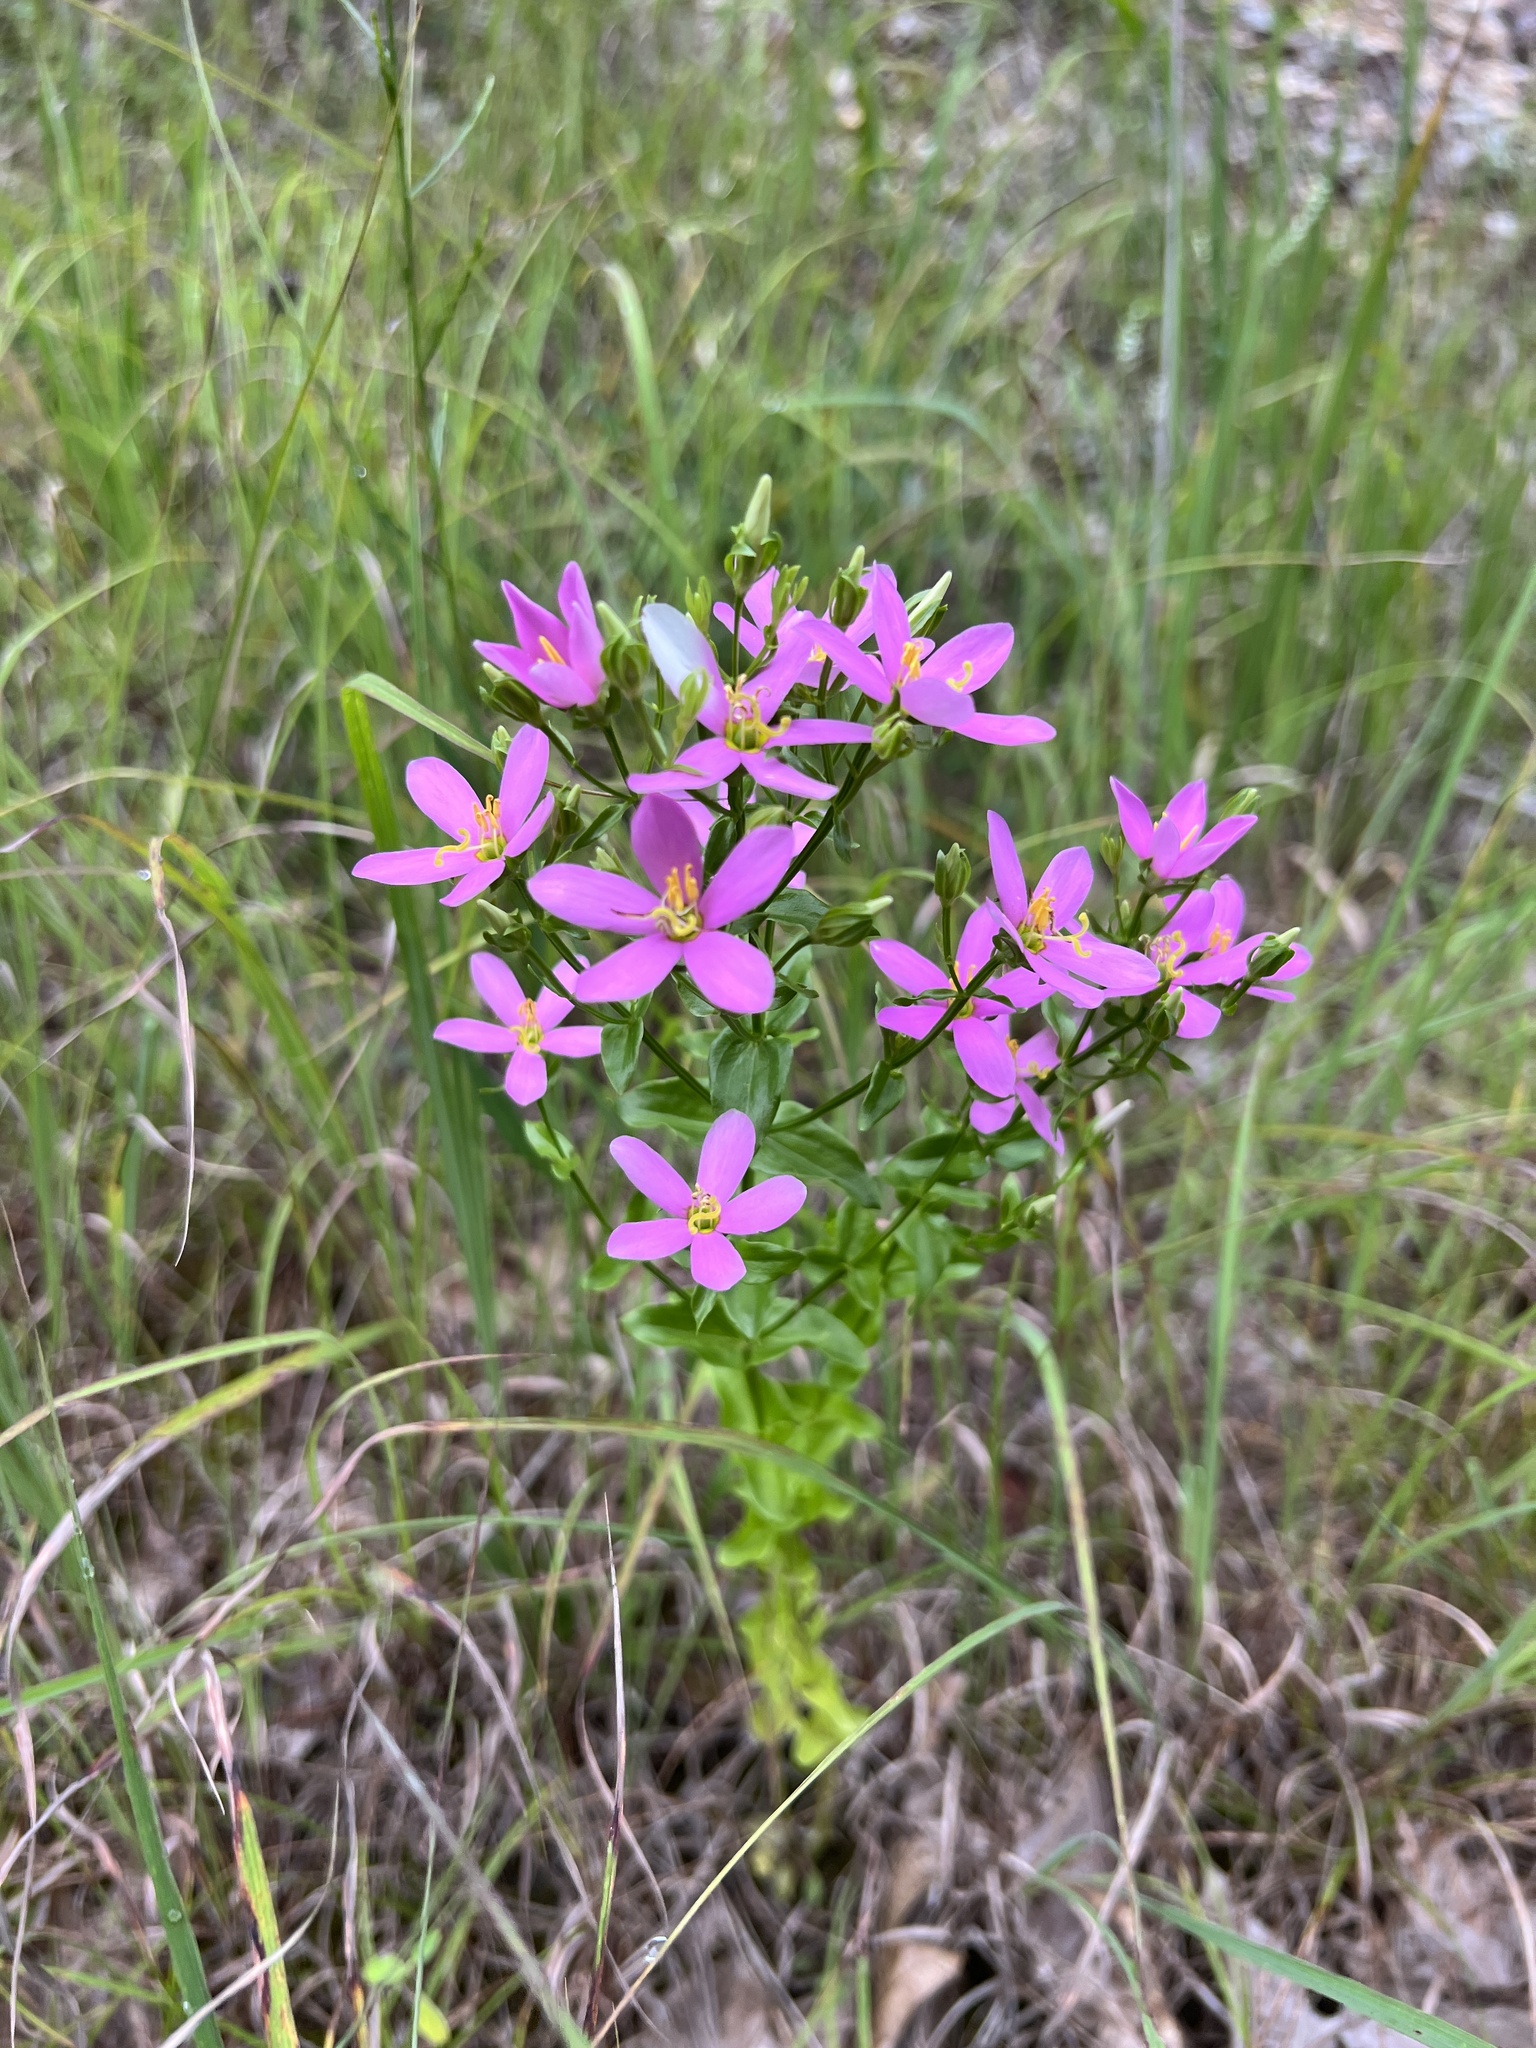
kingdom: Plantae
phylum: Tracheophyta
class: Magnoliopsida
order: Gentianales
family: Gentianaceae
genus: Sabatia
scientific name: Sabatia angularis
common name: Rose-pink
